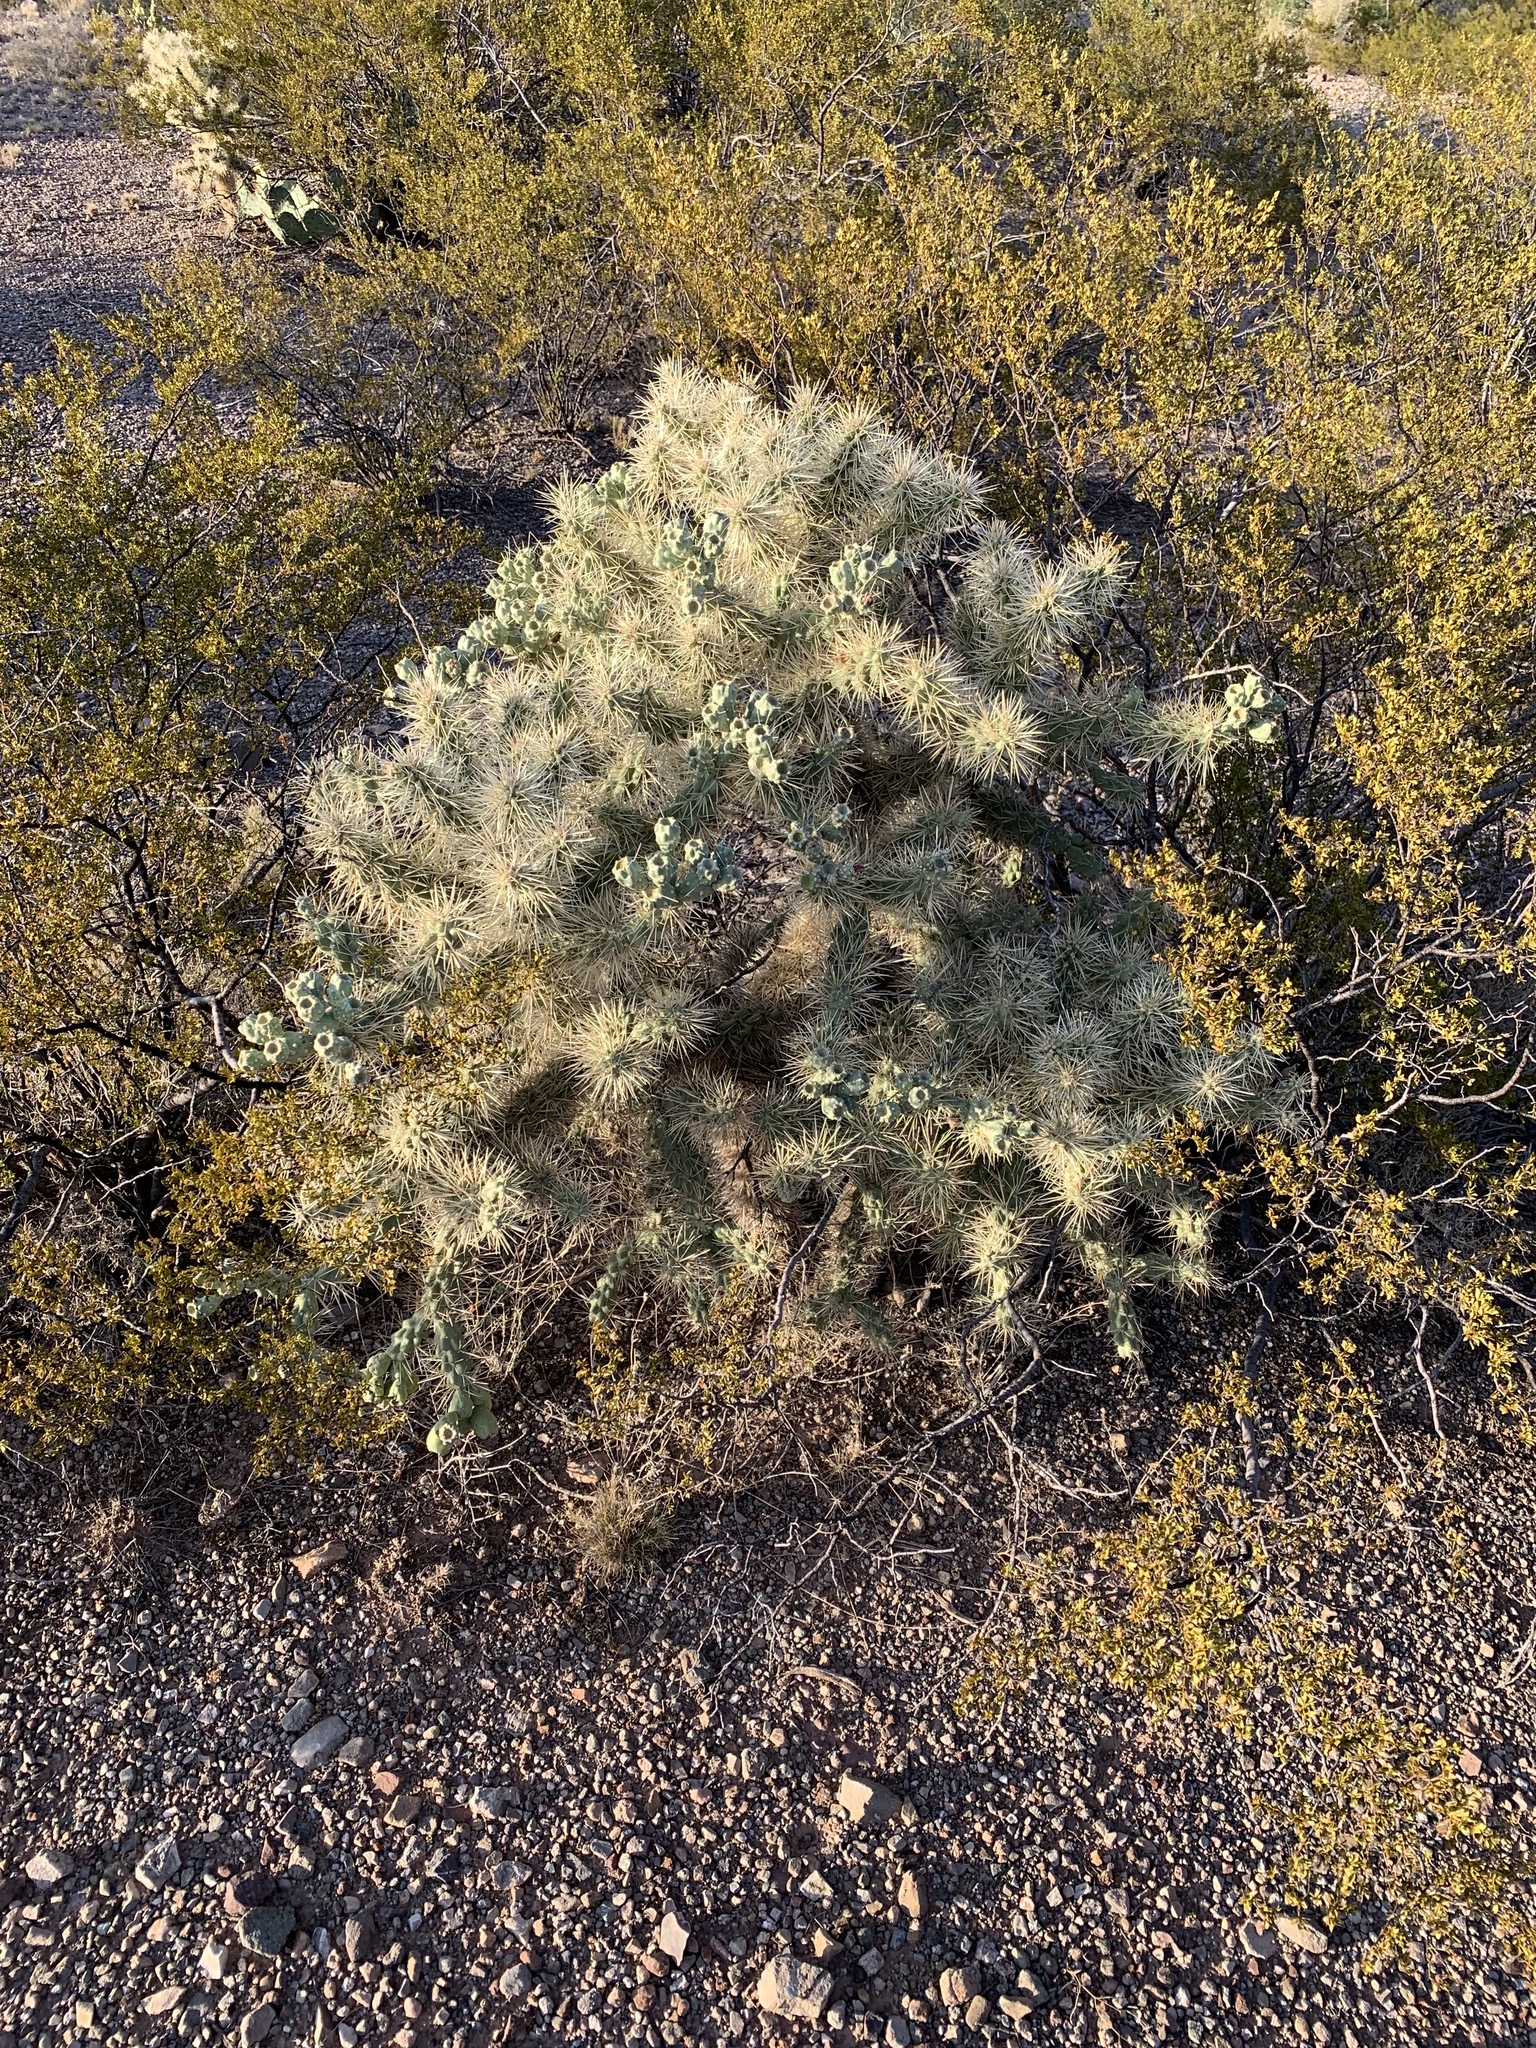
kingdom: Plantae
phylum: Tracheophyta
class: Magnoliopsida
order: Caryophyllales
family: Cactaceae
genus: Cylindropuntia
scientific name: Cylindropuntia fulgida
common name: Jumping cholla
